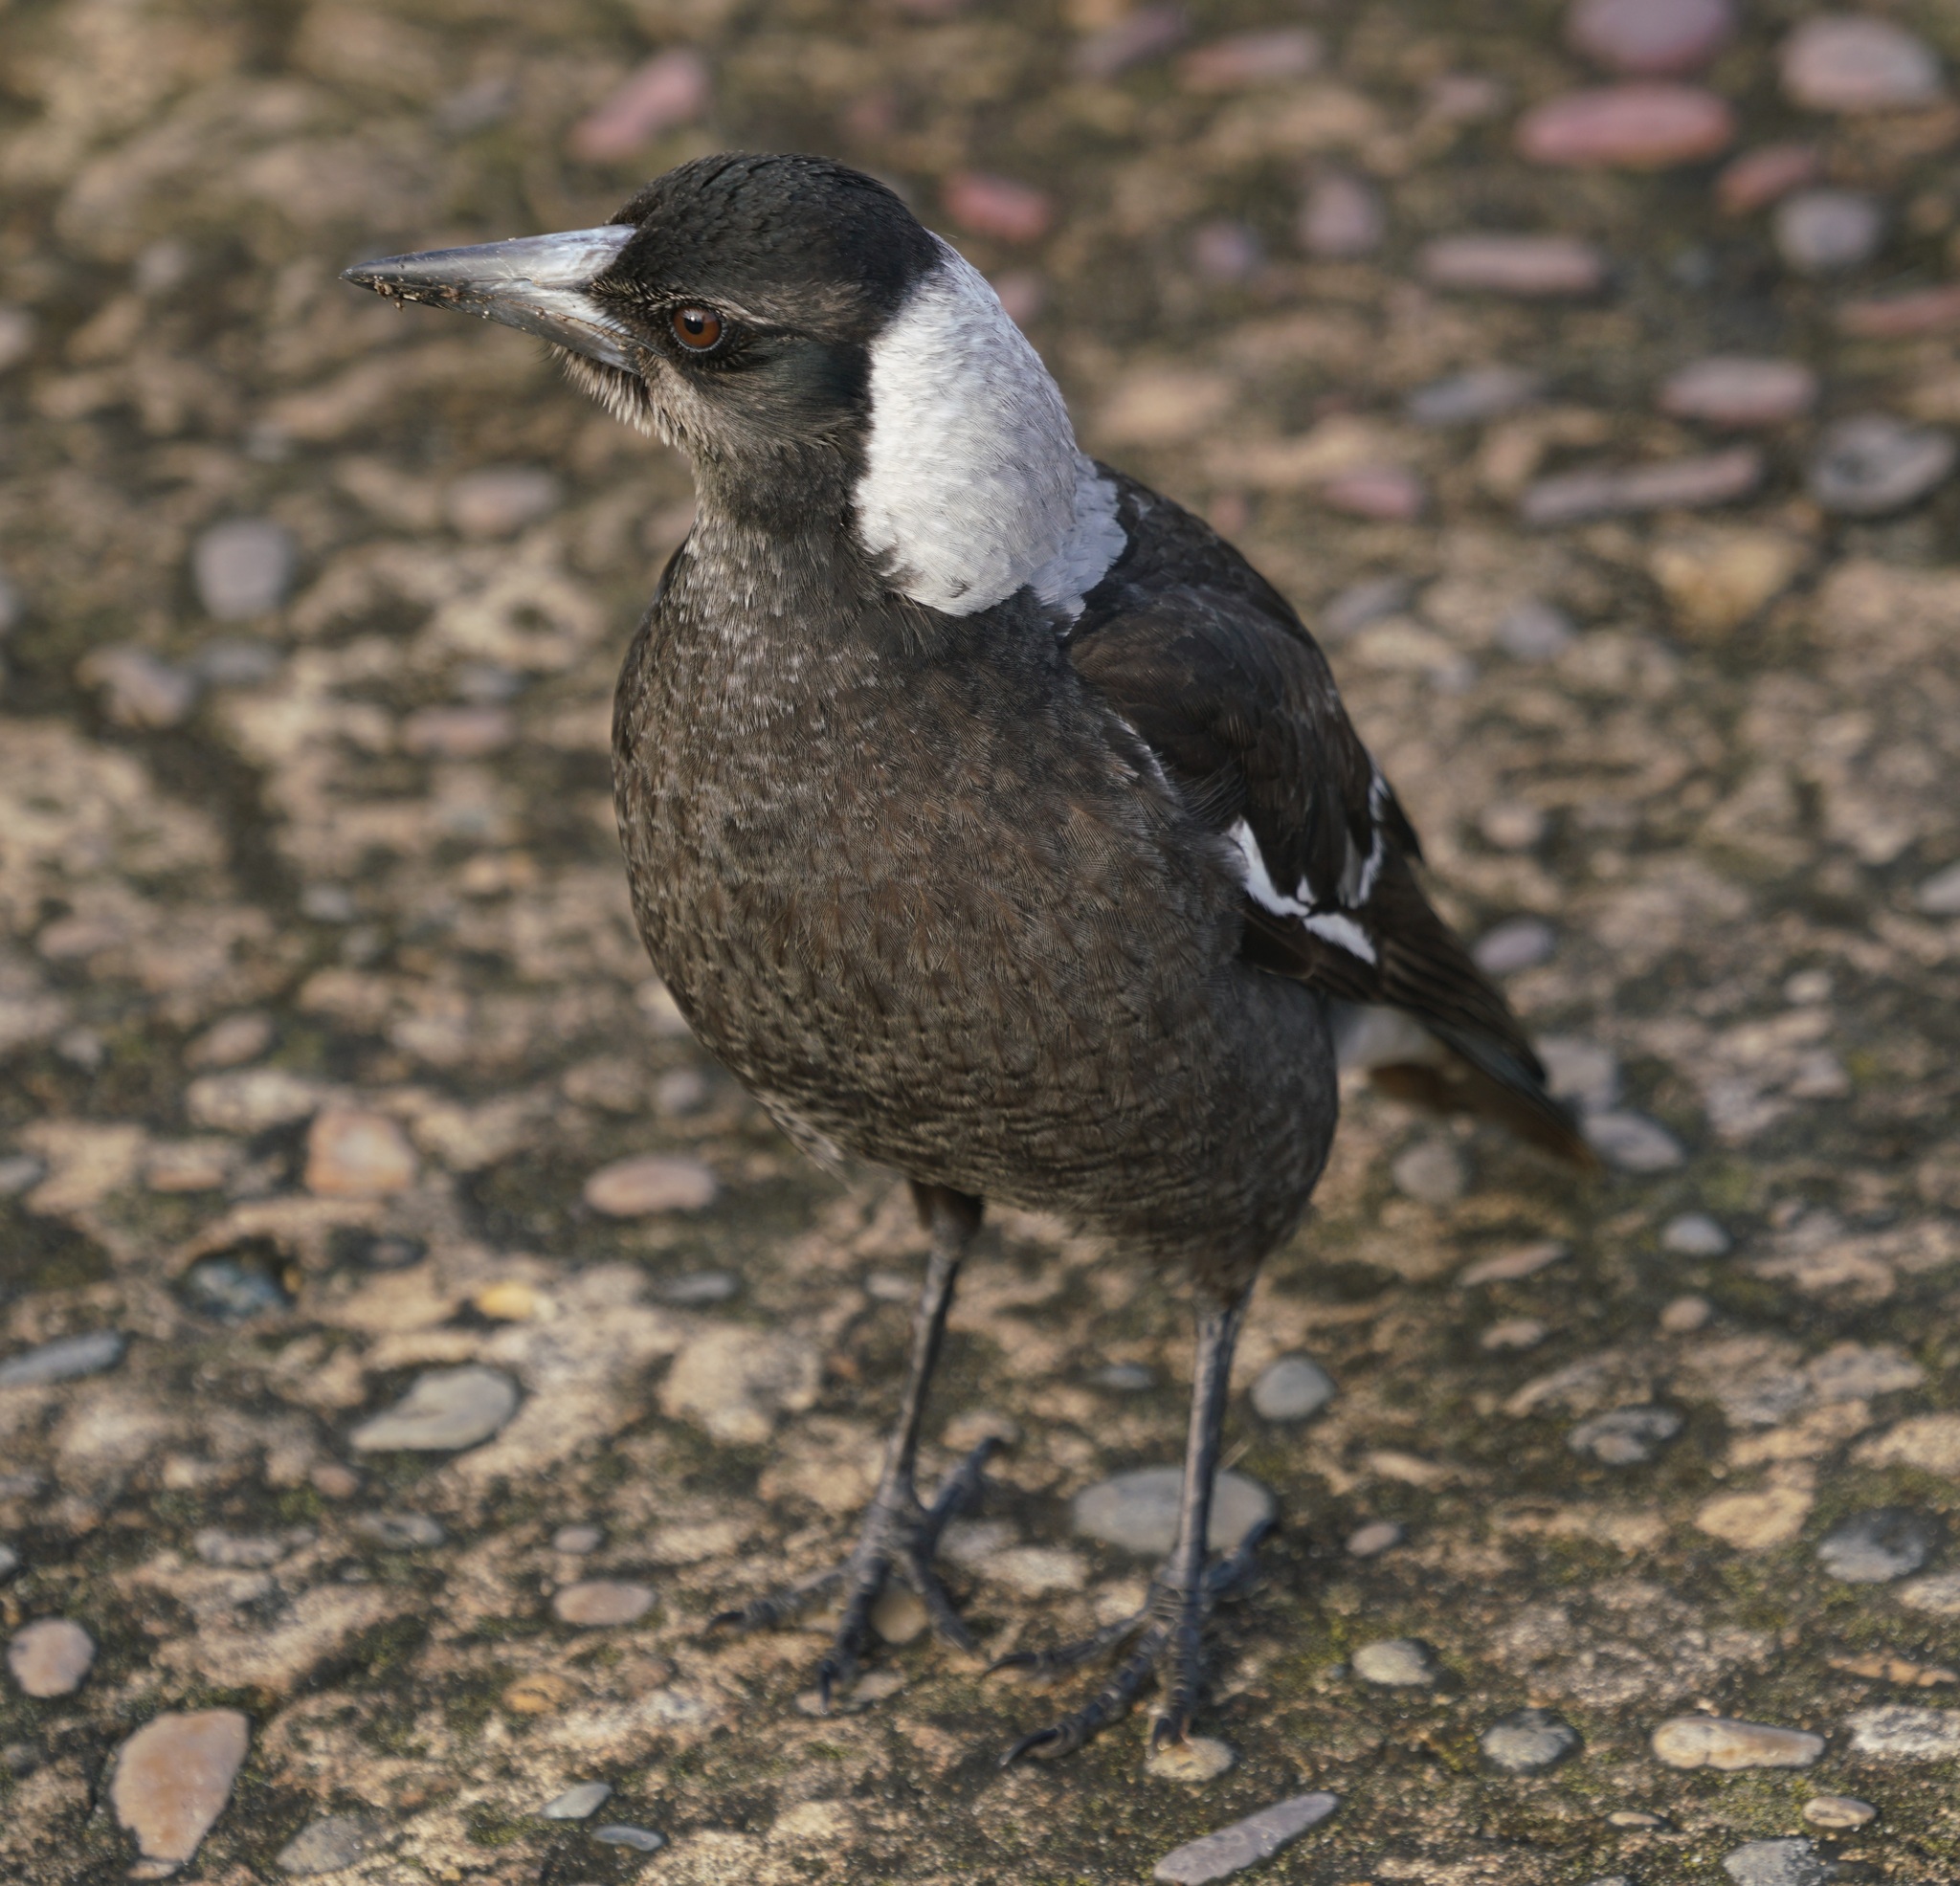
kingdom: Animalia
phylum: Chordata
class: Aves
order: Passeriformes
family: Cracticidae
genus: Gymnorhina
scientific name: Gymnorhina tibicen
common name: Australian magpie
